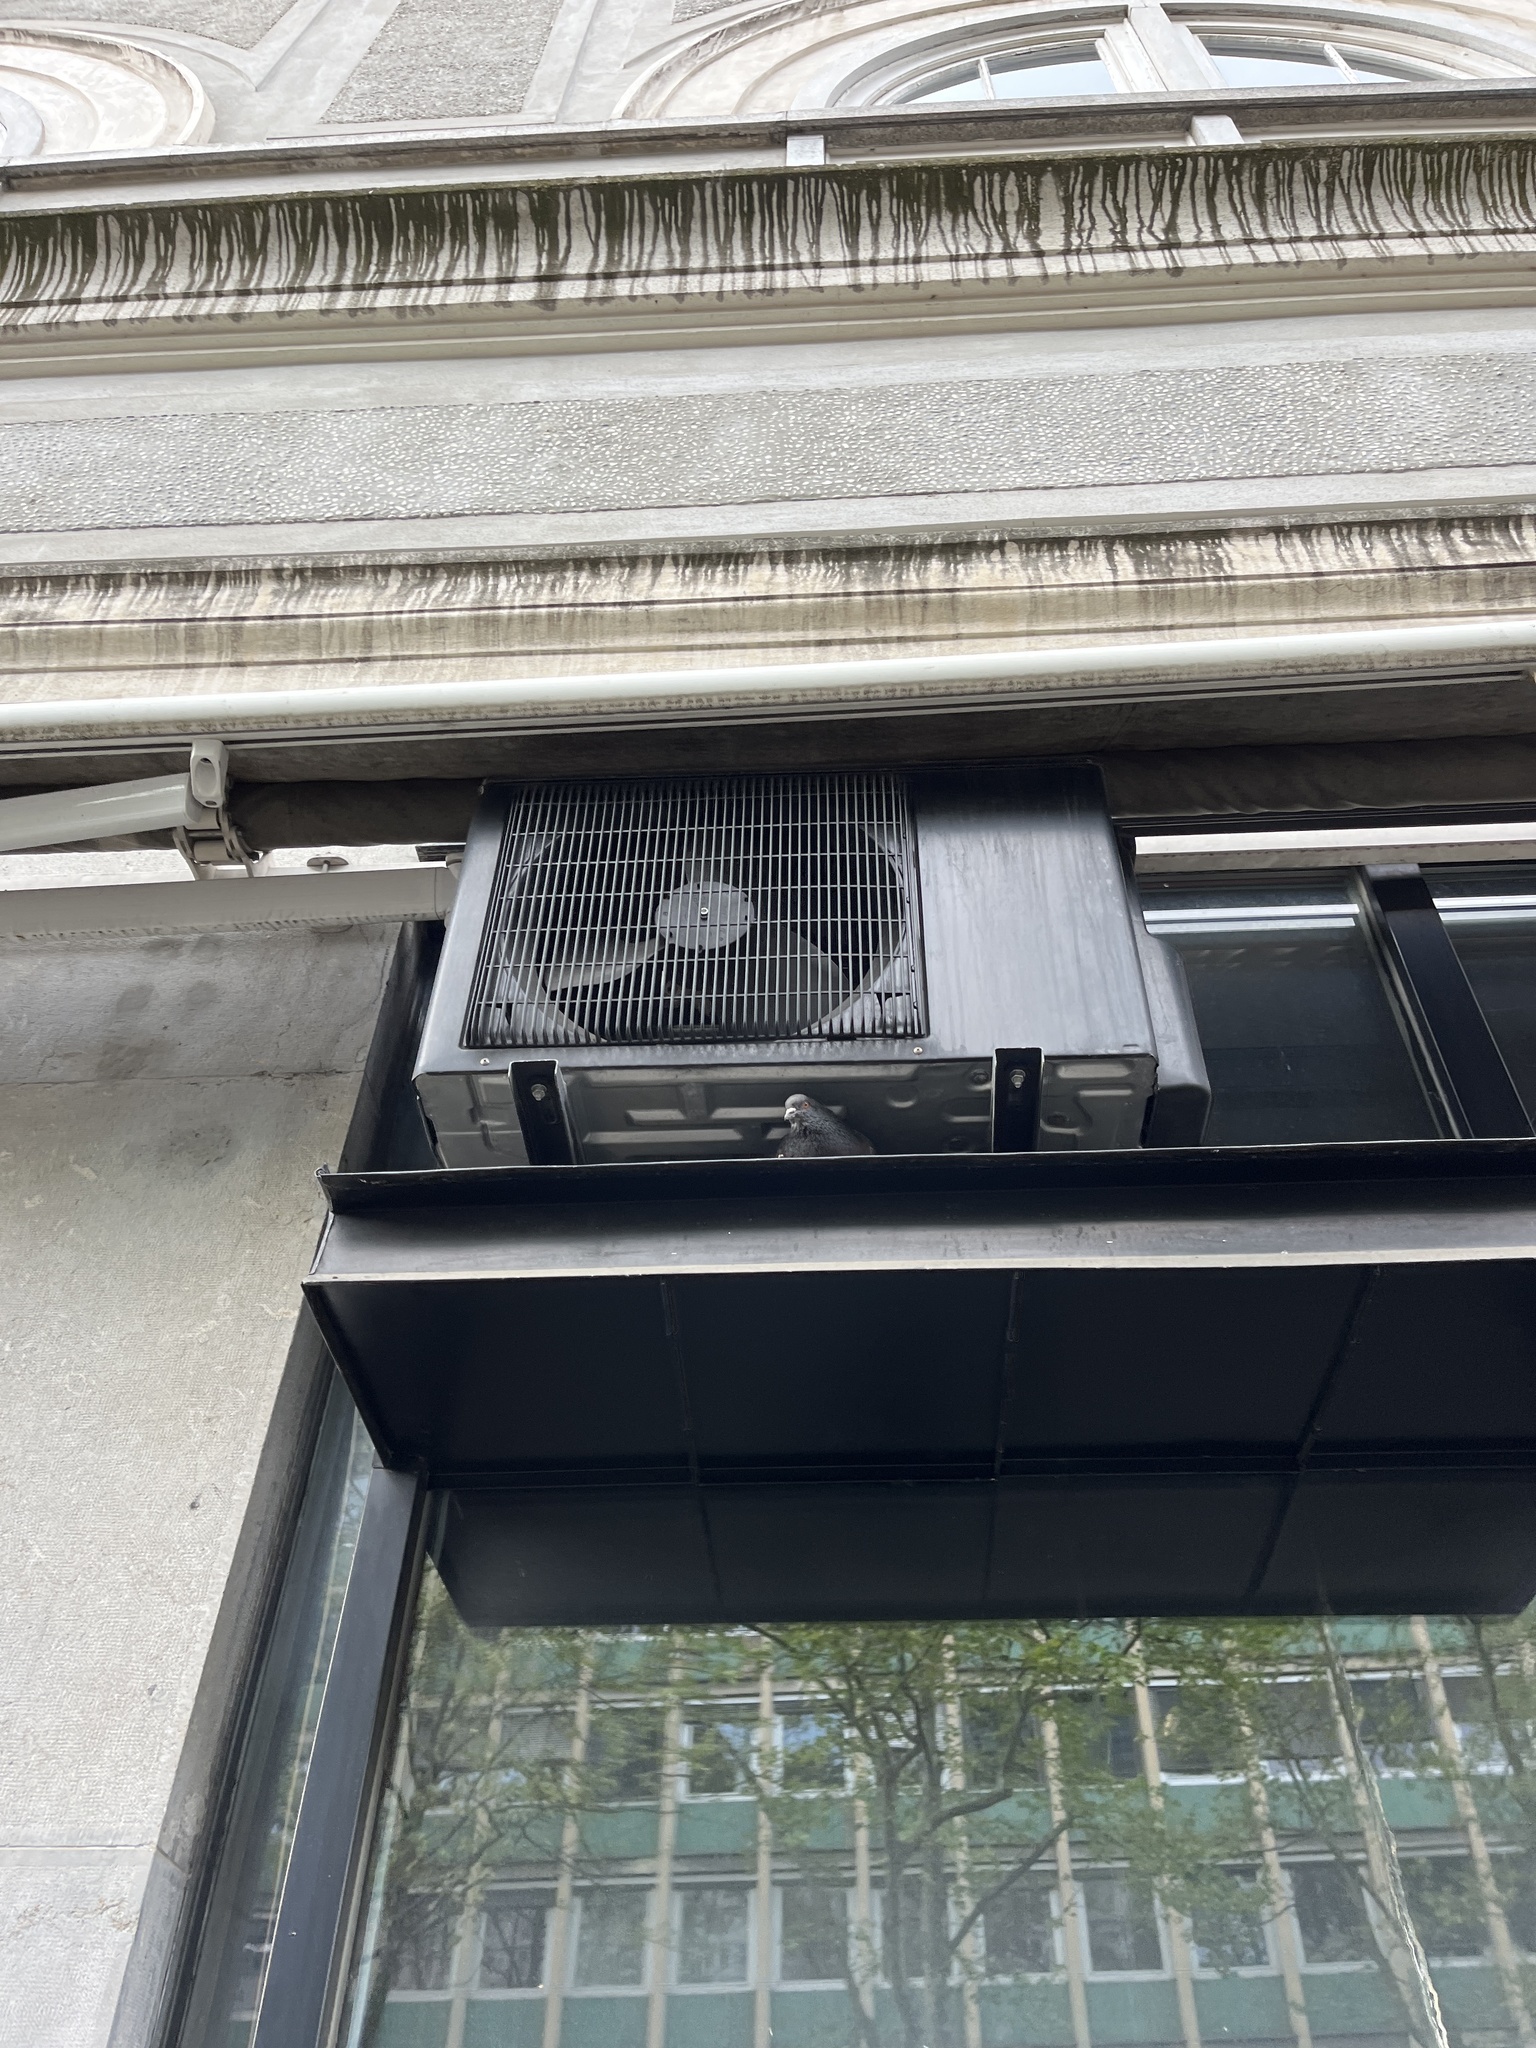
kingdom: Animalia
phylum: Chordata
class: Aves
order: Columbiformes
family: Columbidae
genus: Columba
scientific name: Columba livia
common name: Rock pigeon
